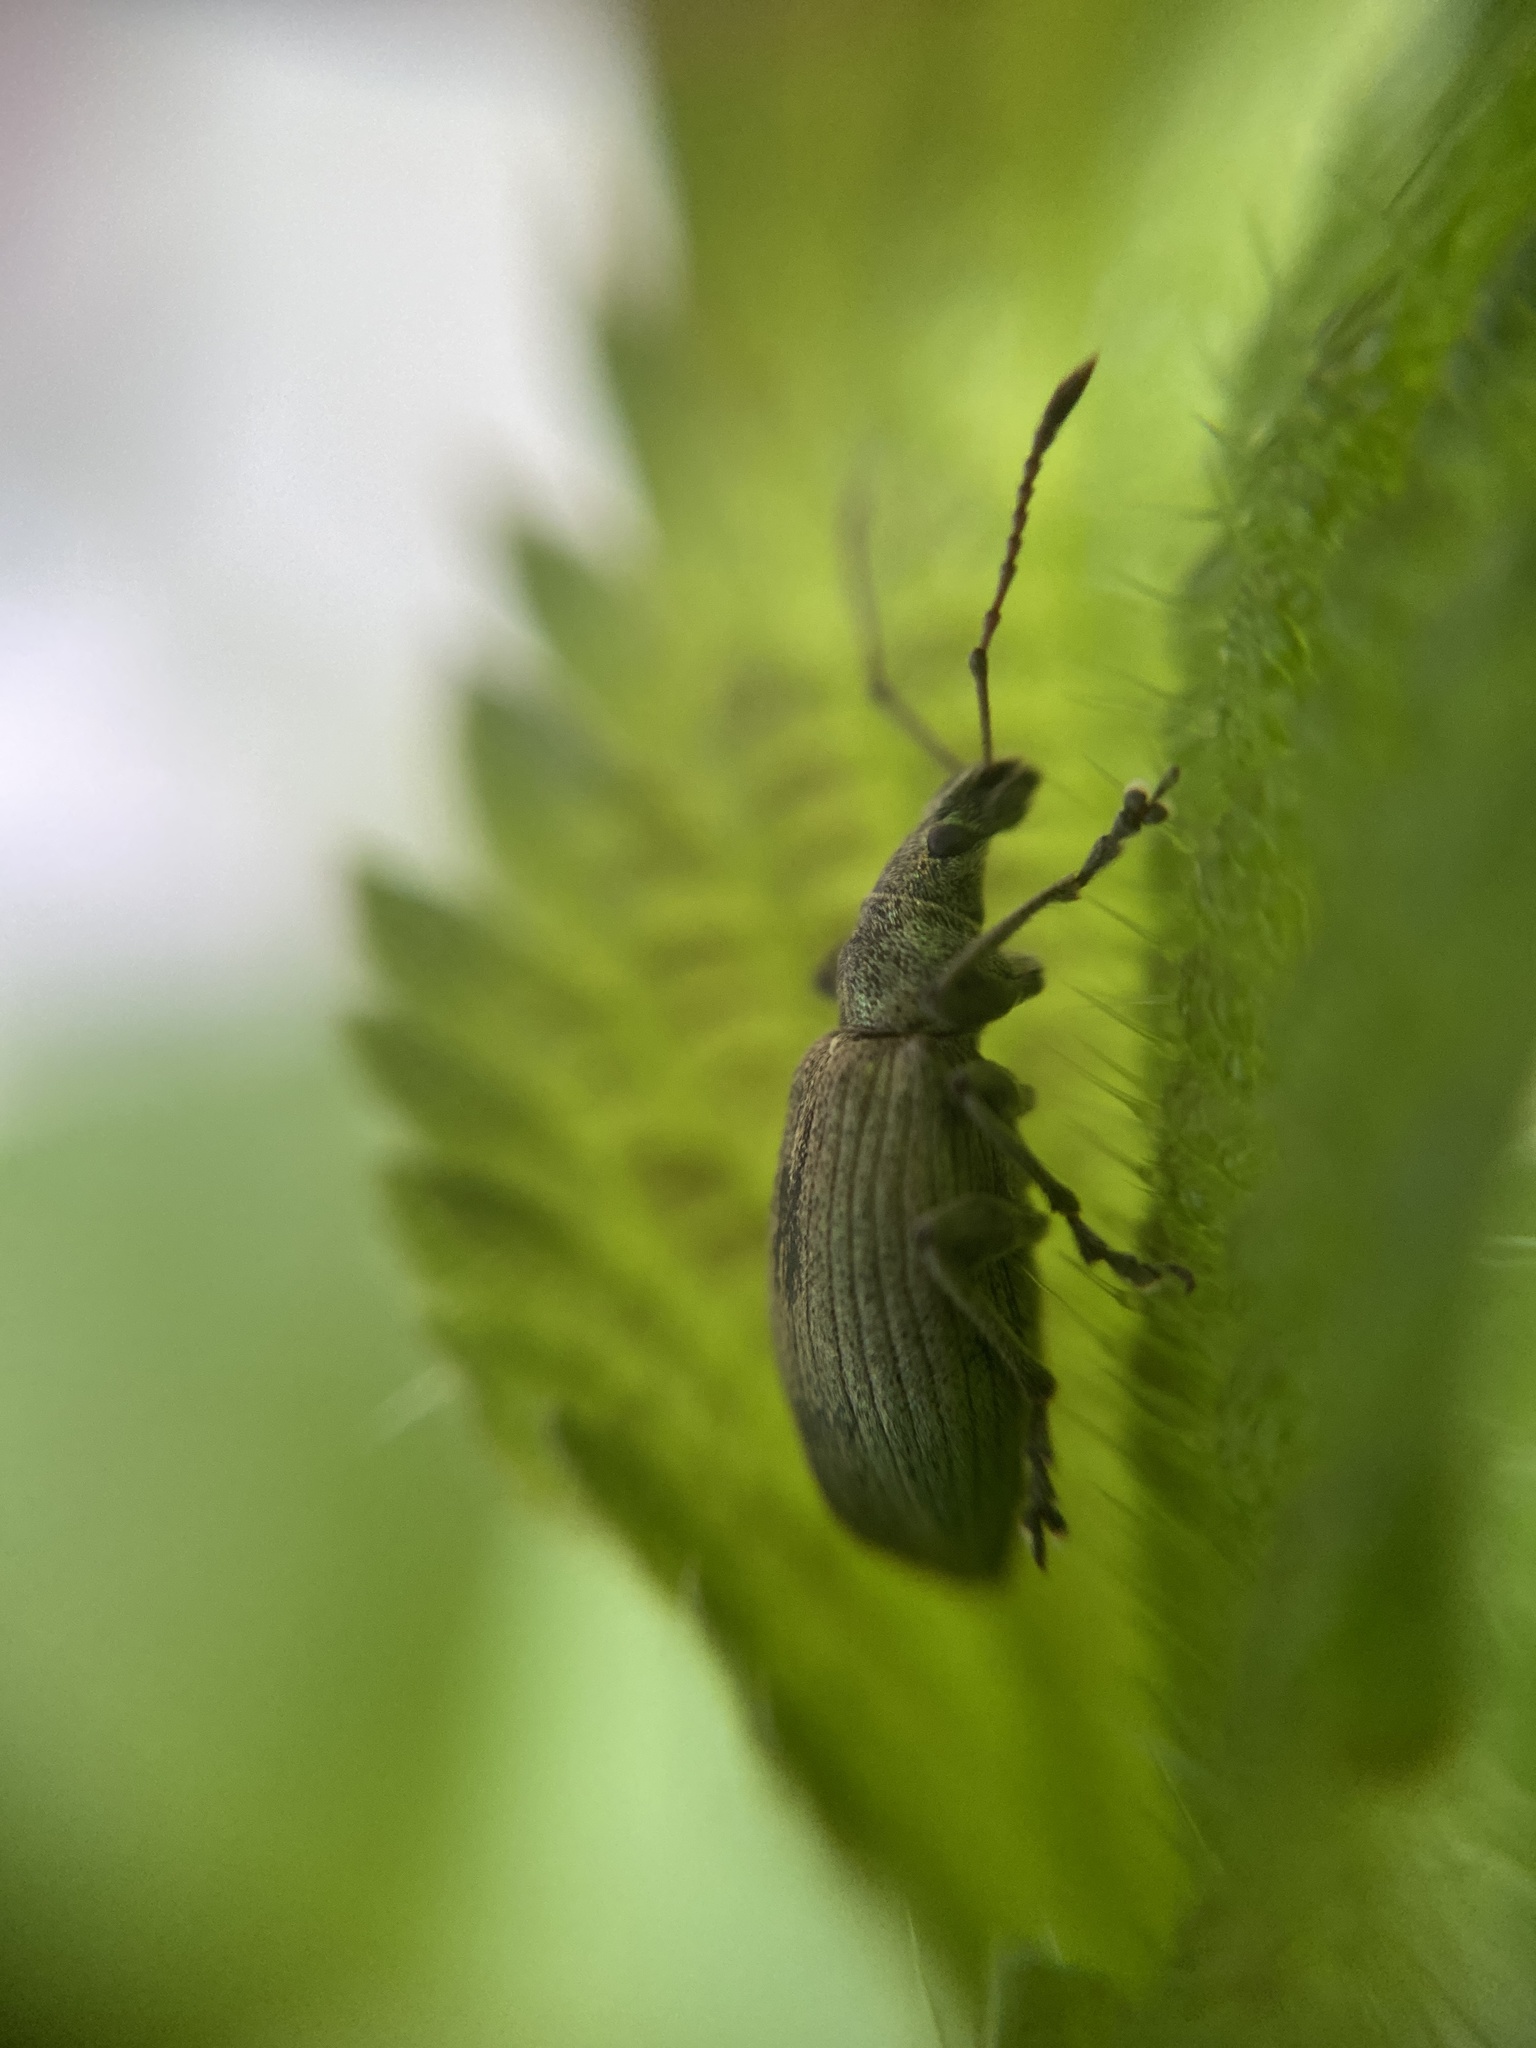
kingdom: Animalia
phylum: Arthropoda
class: Insecta
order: Coleoptera
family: Curculionidae
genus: Phyllobius
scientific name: Phyllobius pomaceus
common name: Green nettle weevil
